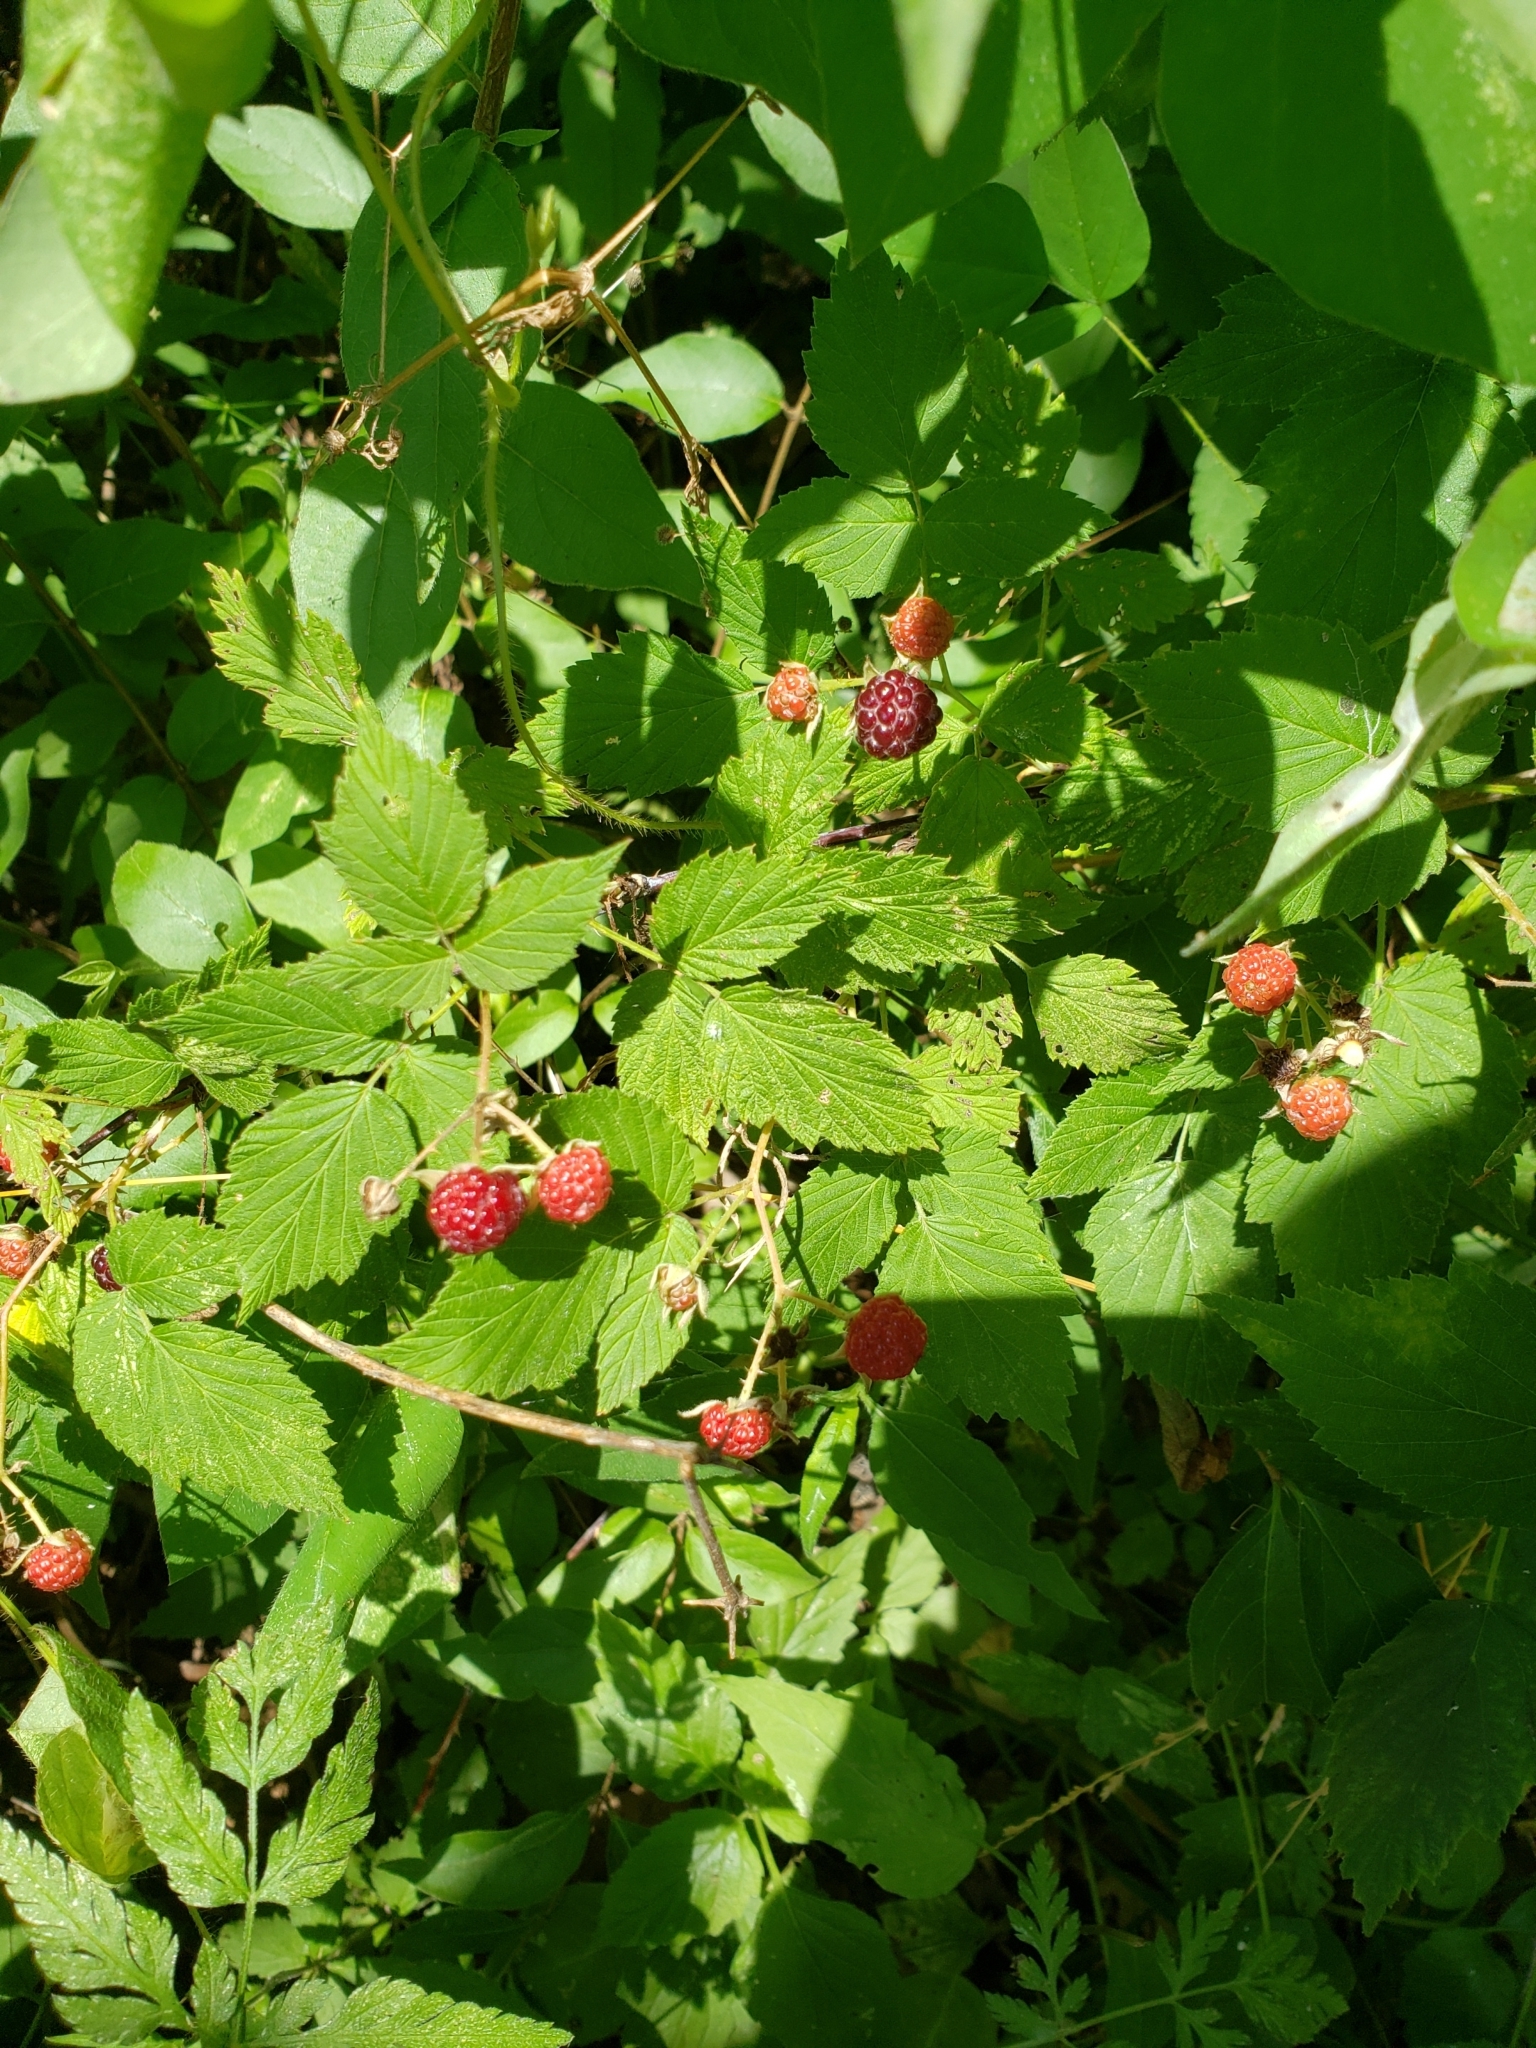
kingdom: Plantae
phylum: Tracheophyta
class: Magnoliopsida
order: Rosales
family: Rosaceae
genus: Rubus
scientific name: Rubus occidentalis
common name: Black raspberry
